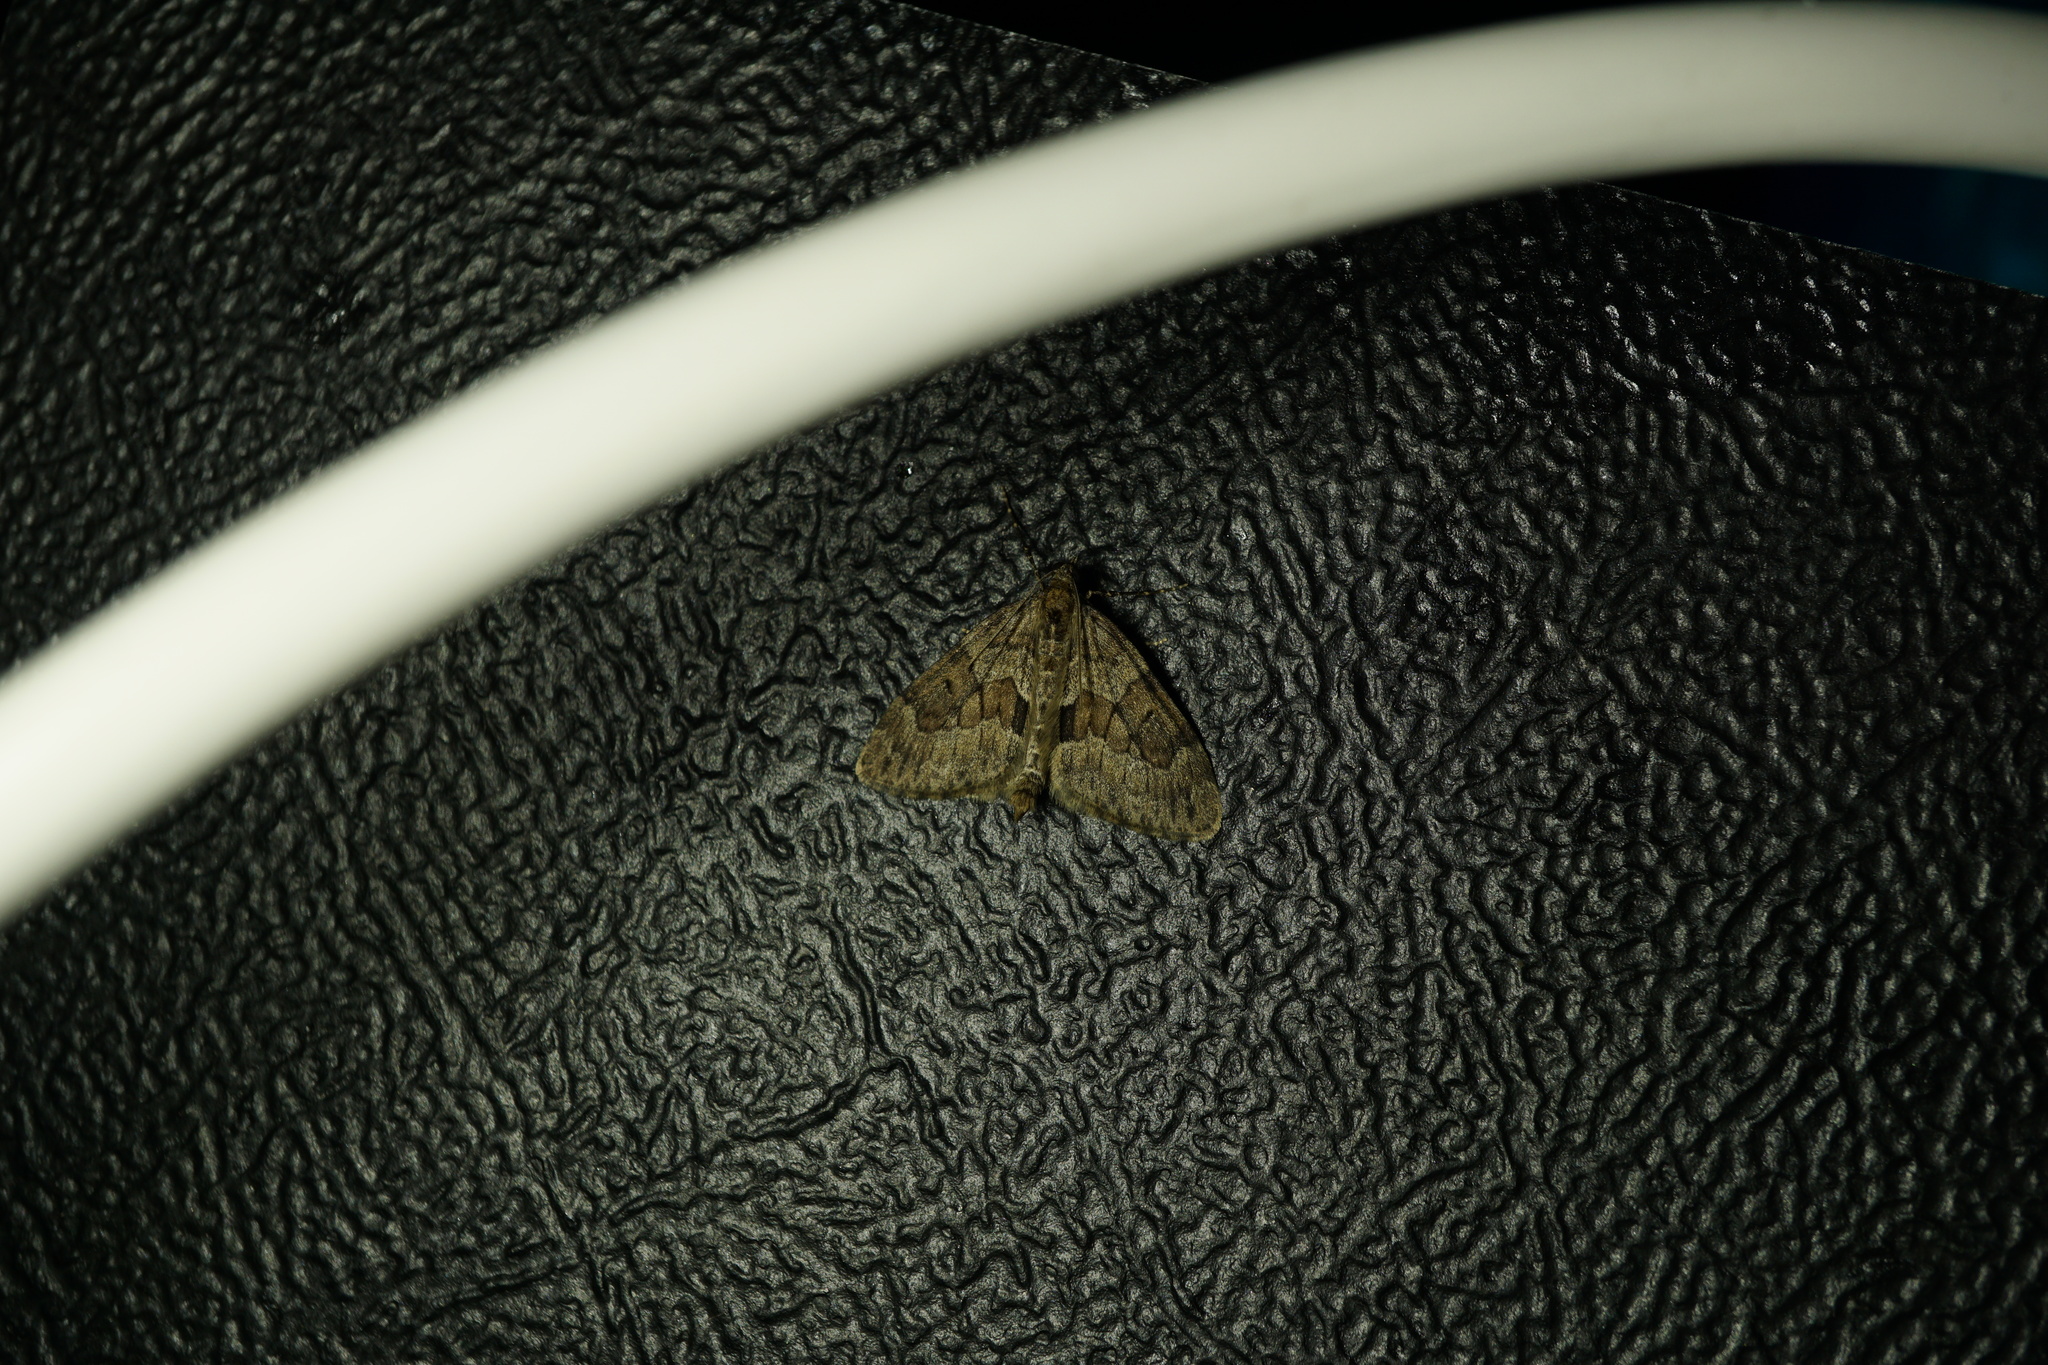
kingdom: Animalia
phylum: Arthropoda
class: Insecta
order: Lepidoptera
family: Geometridae
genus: Thera
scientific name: Thera britannica
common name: Spruce carpet
